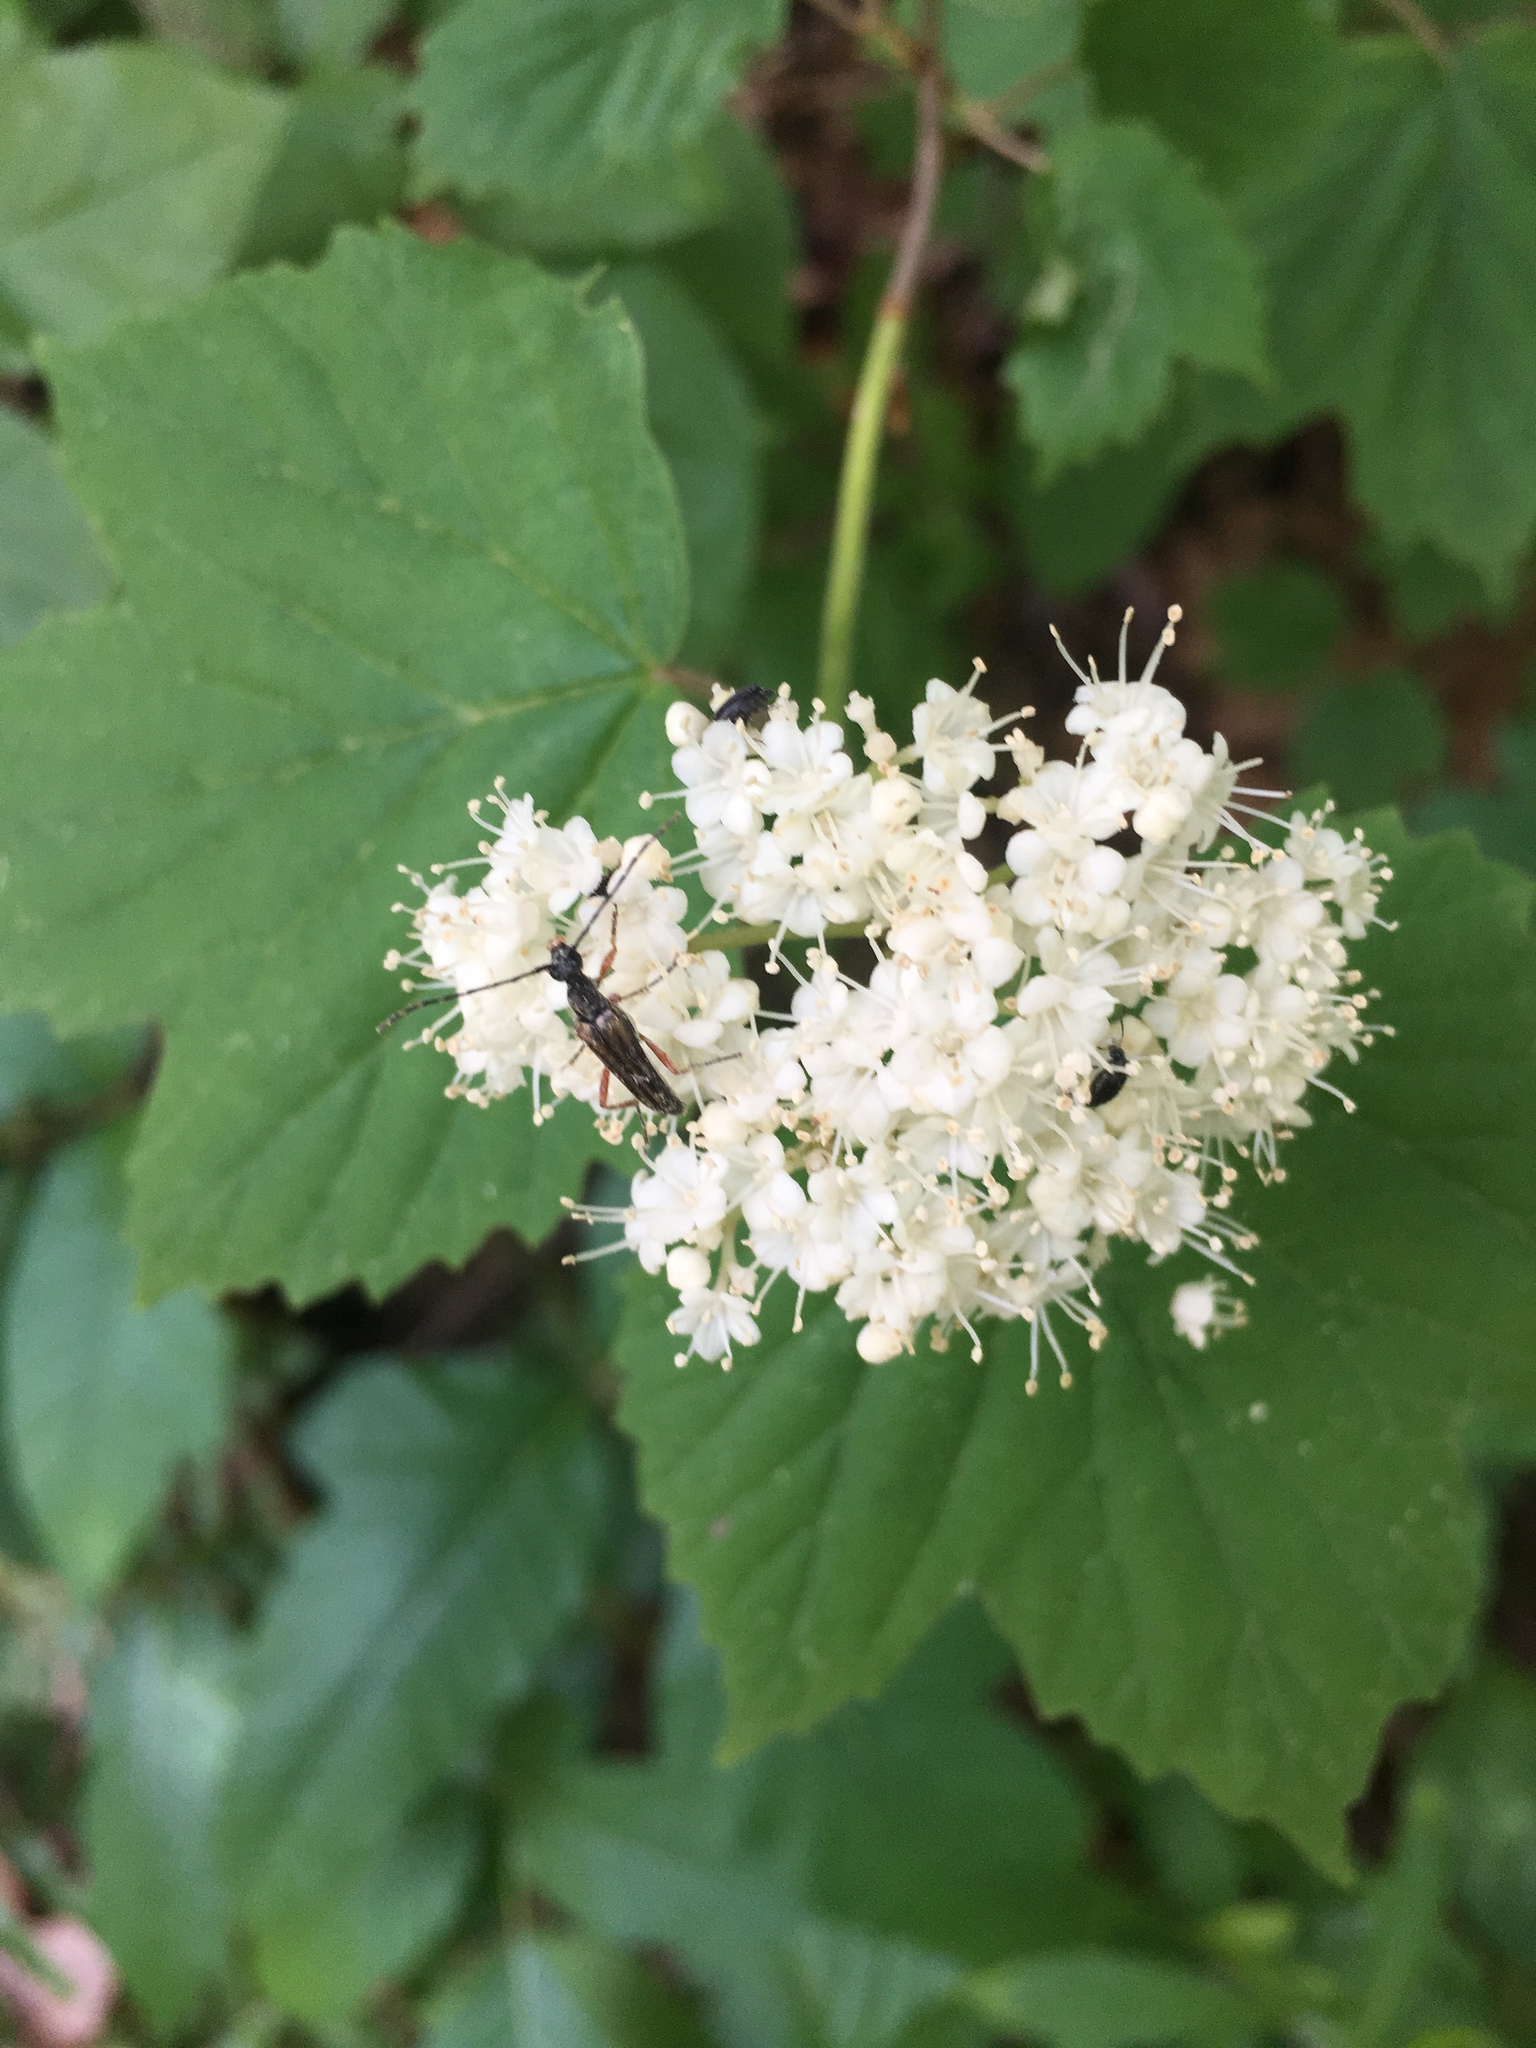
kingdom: Plantae
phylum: Tracheophyta
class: Magnoliopsida
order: Dipsacales
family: Viburnaceae
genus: Viburnum
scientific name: Viburnum acerifolium
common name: Dockmackie
